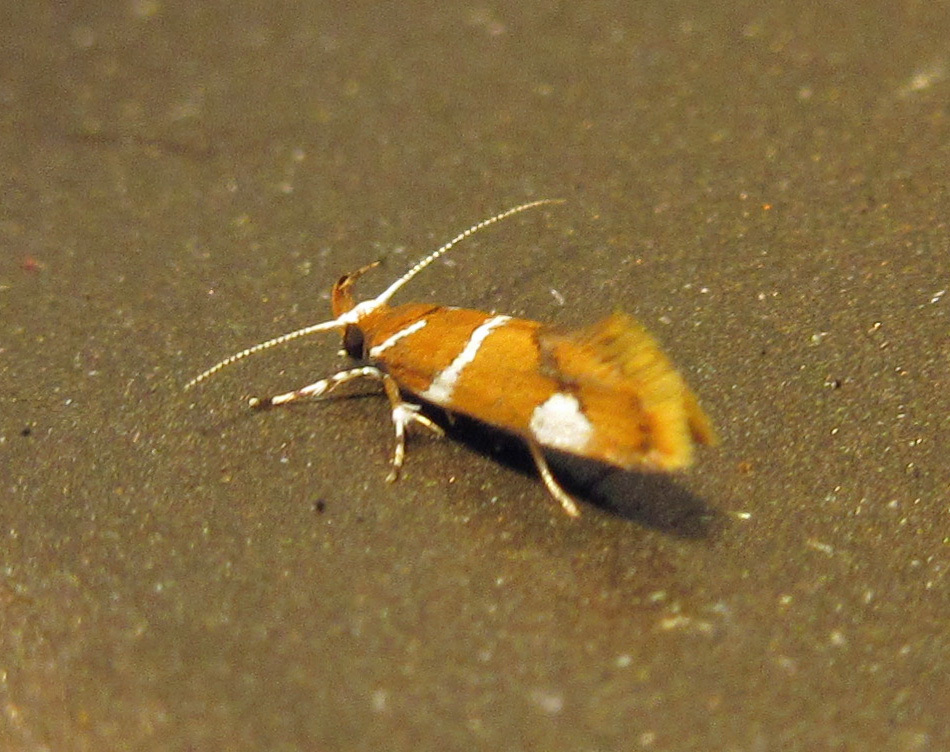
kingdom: Animalia
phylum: Arthropoda
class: Insecta
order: Lepidoptera
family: Oecophoridae
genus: Promalactis
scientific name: Promalactis suzukiella
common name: Moth
